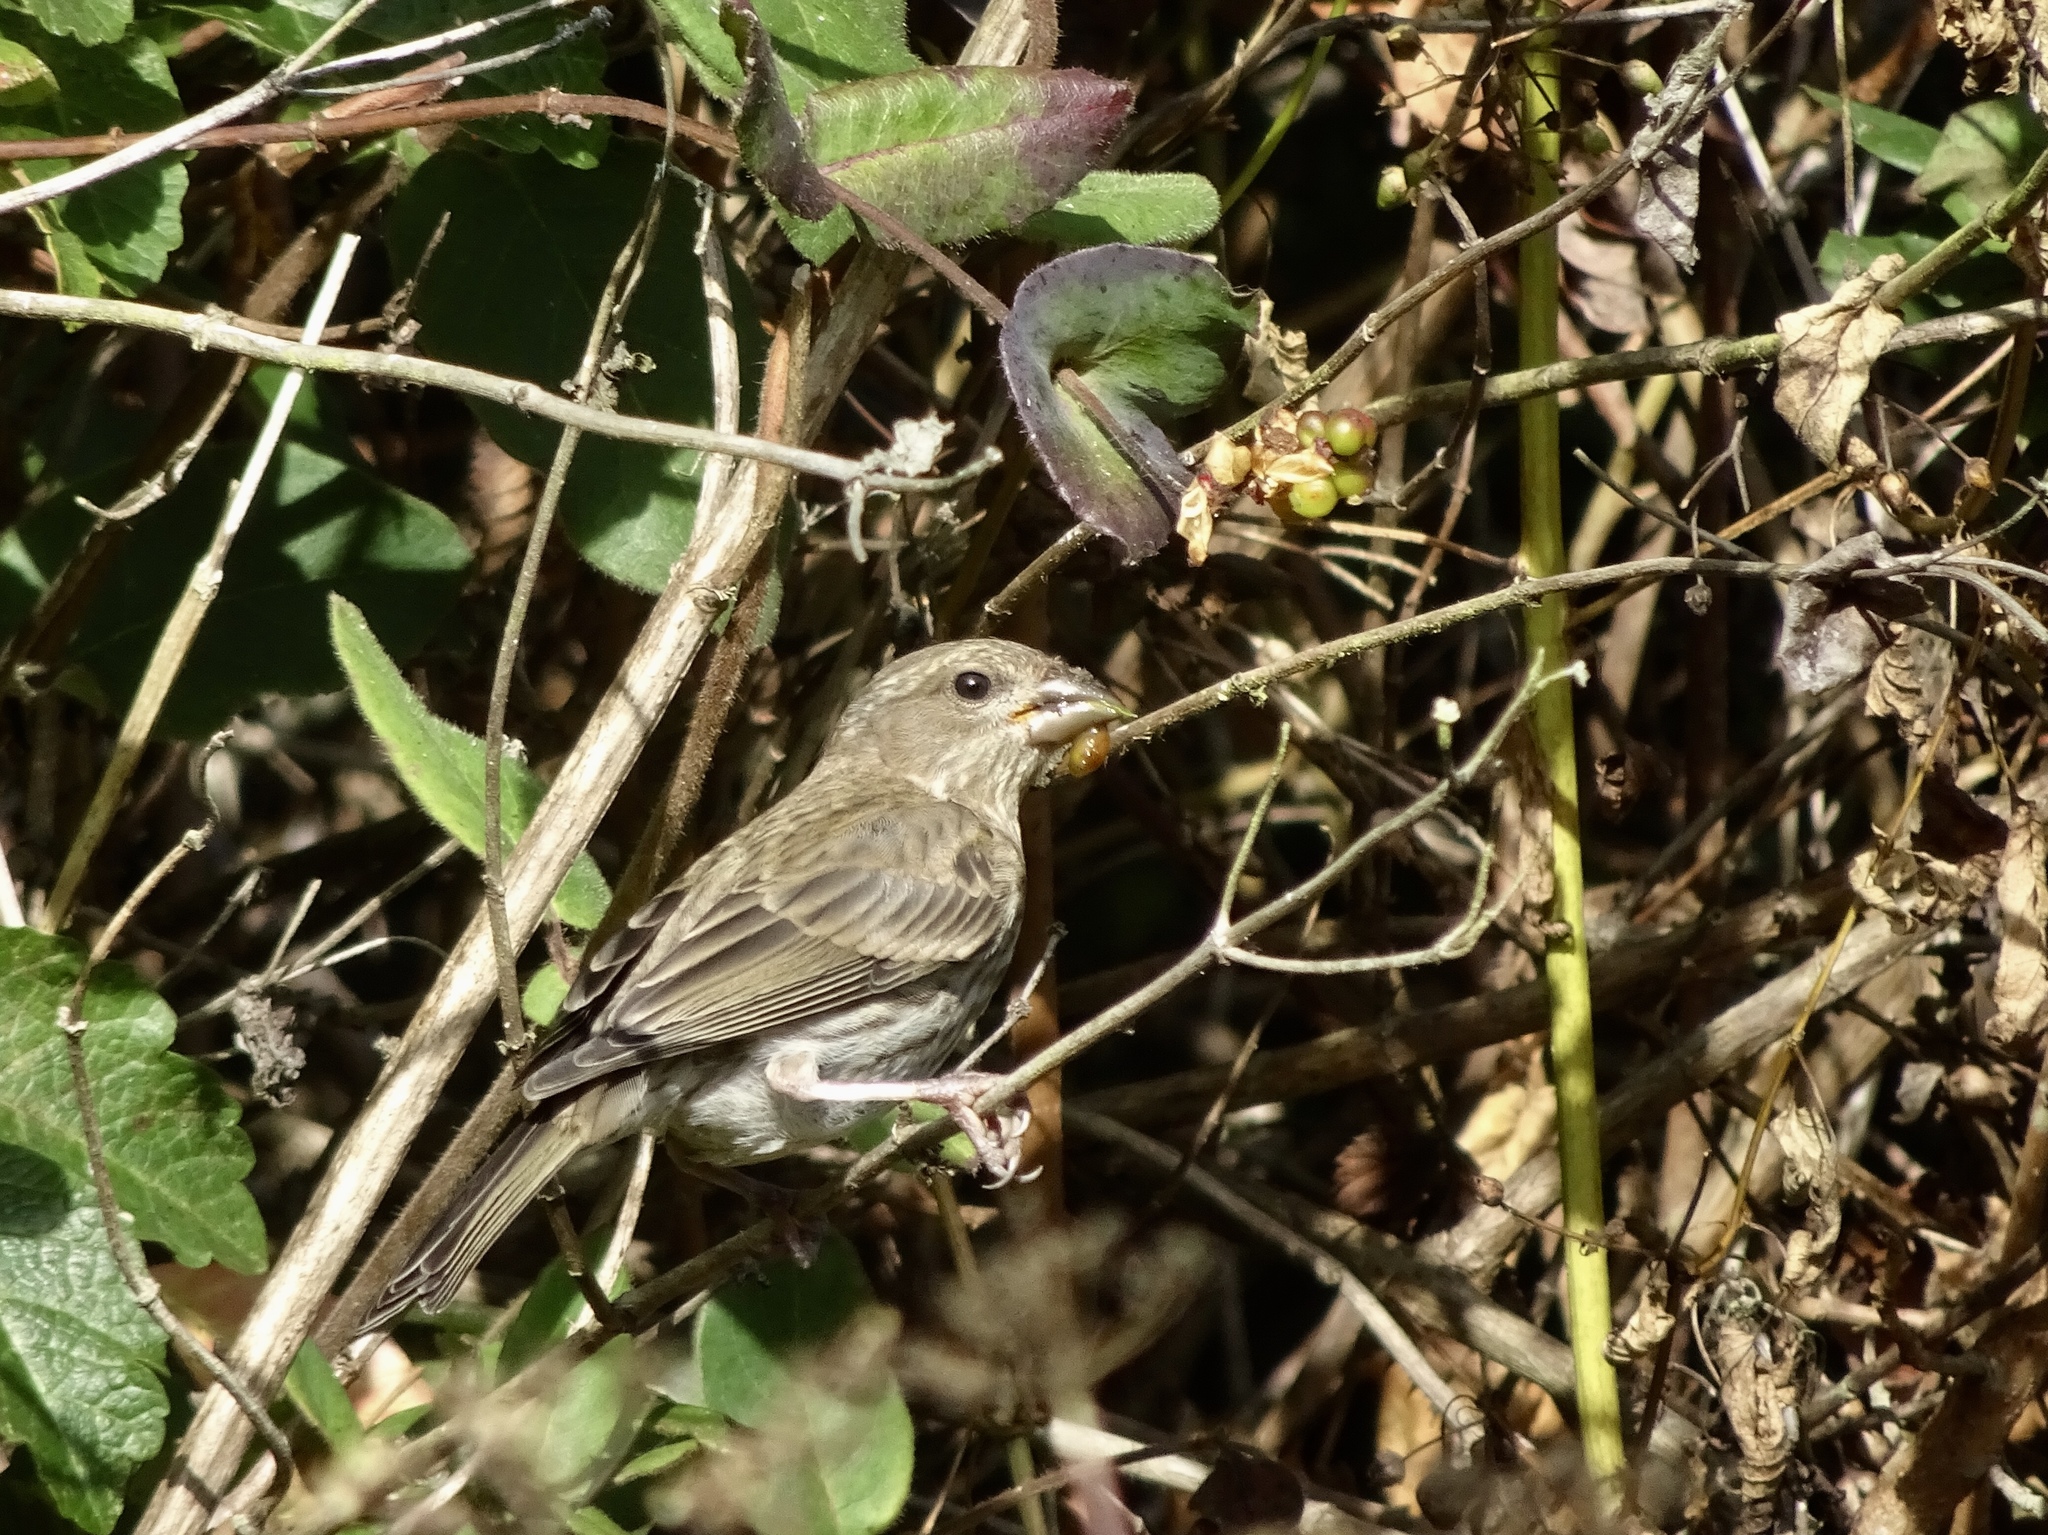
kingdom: Animalia
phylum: Chordata
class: Aves
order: Passeriformes
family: Fringillidae
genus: Haemorhous
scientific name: Haemorhous mexicanus
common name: House finch
